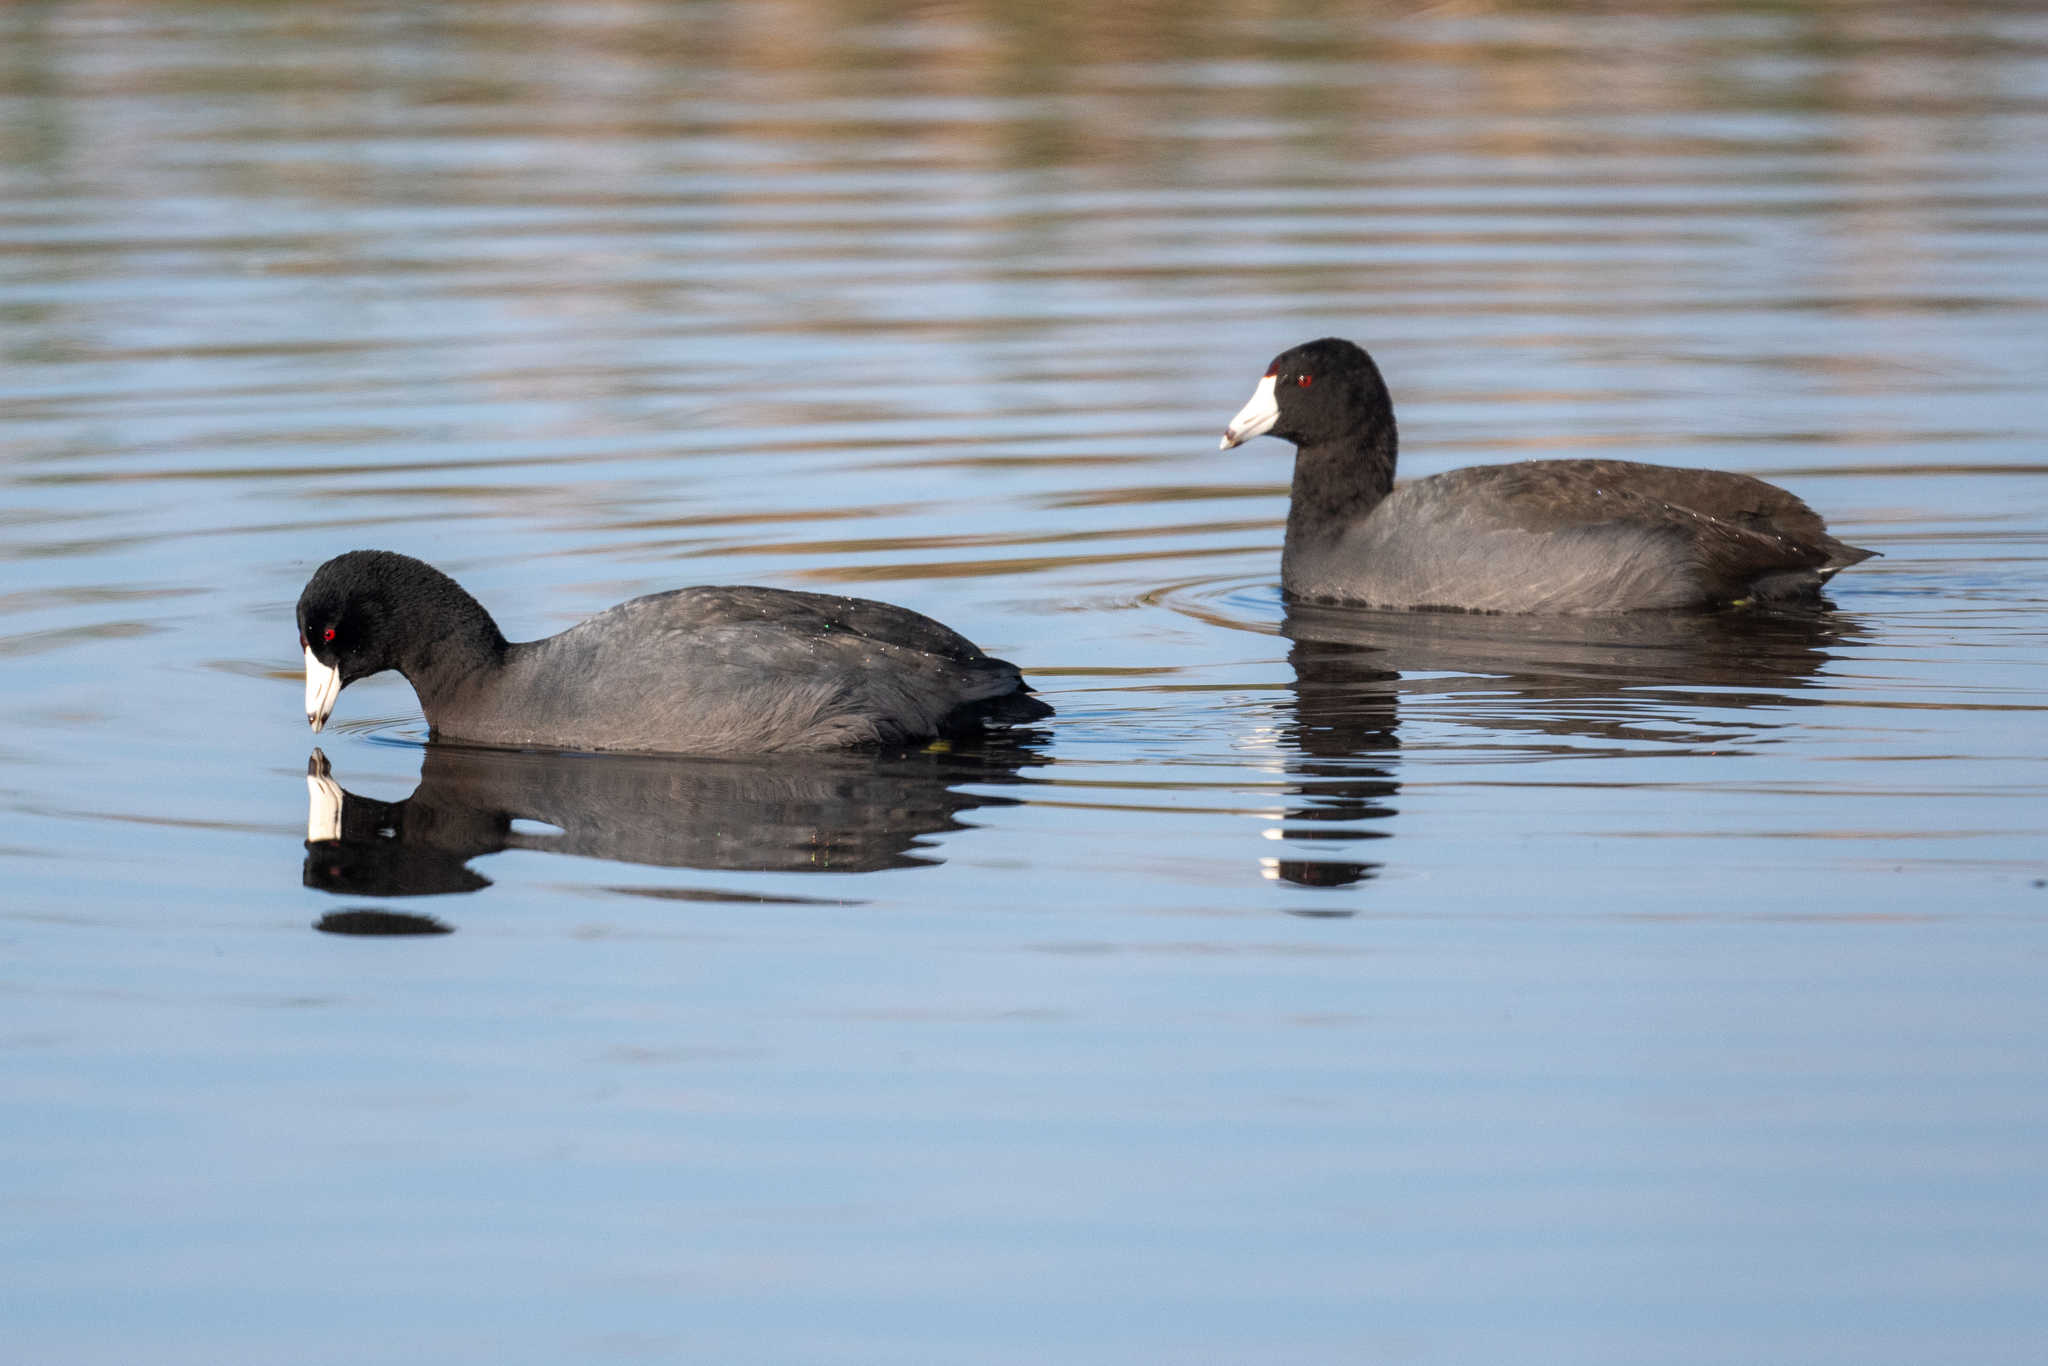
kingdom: Animalia
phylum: Chordata
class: Aves
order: Gruiformes
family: Rallidae
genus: Fulica
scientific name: Fulica americana
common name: American coot
